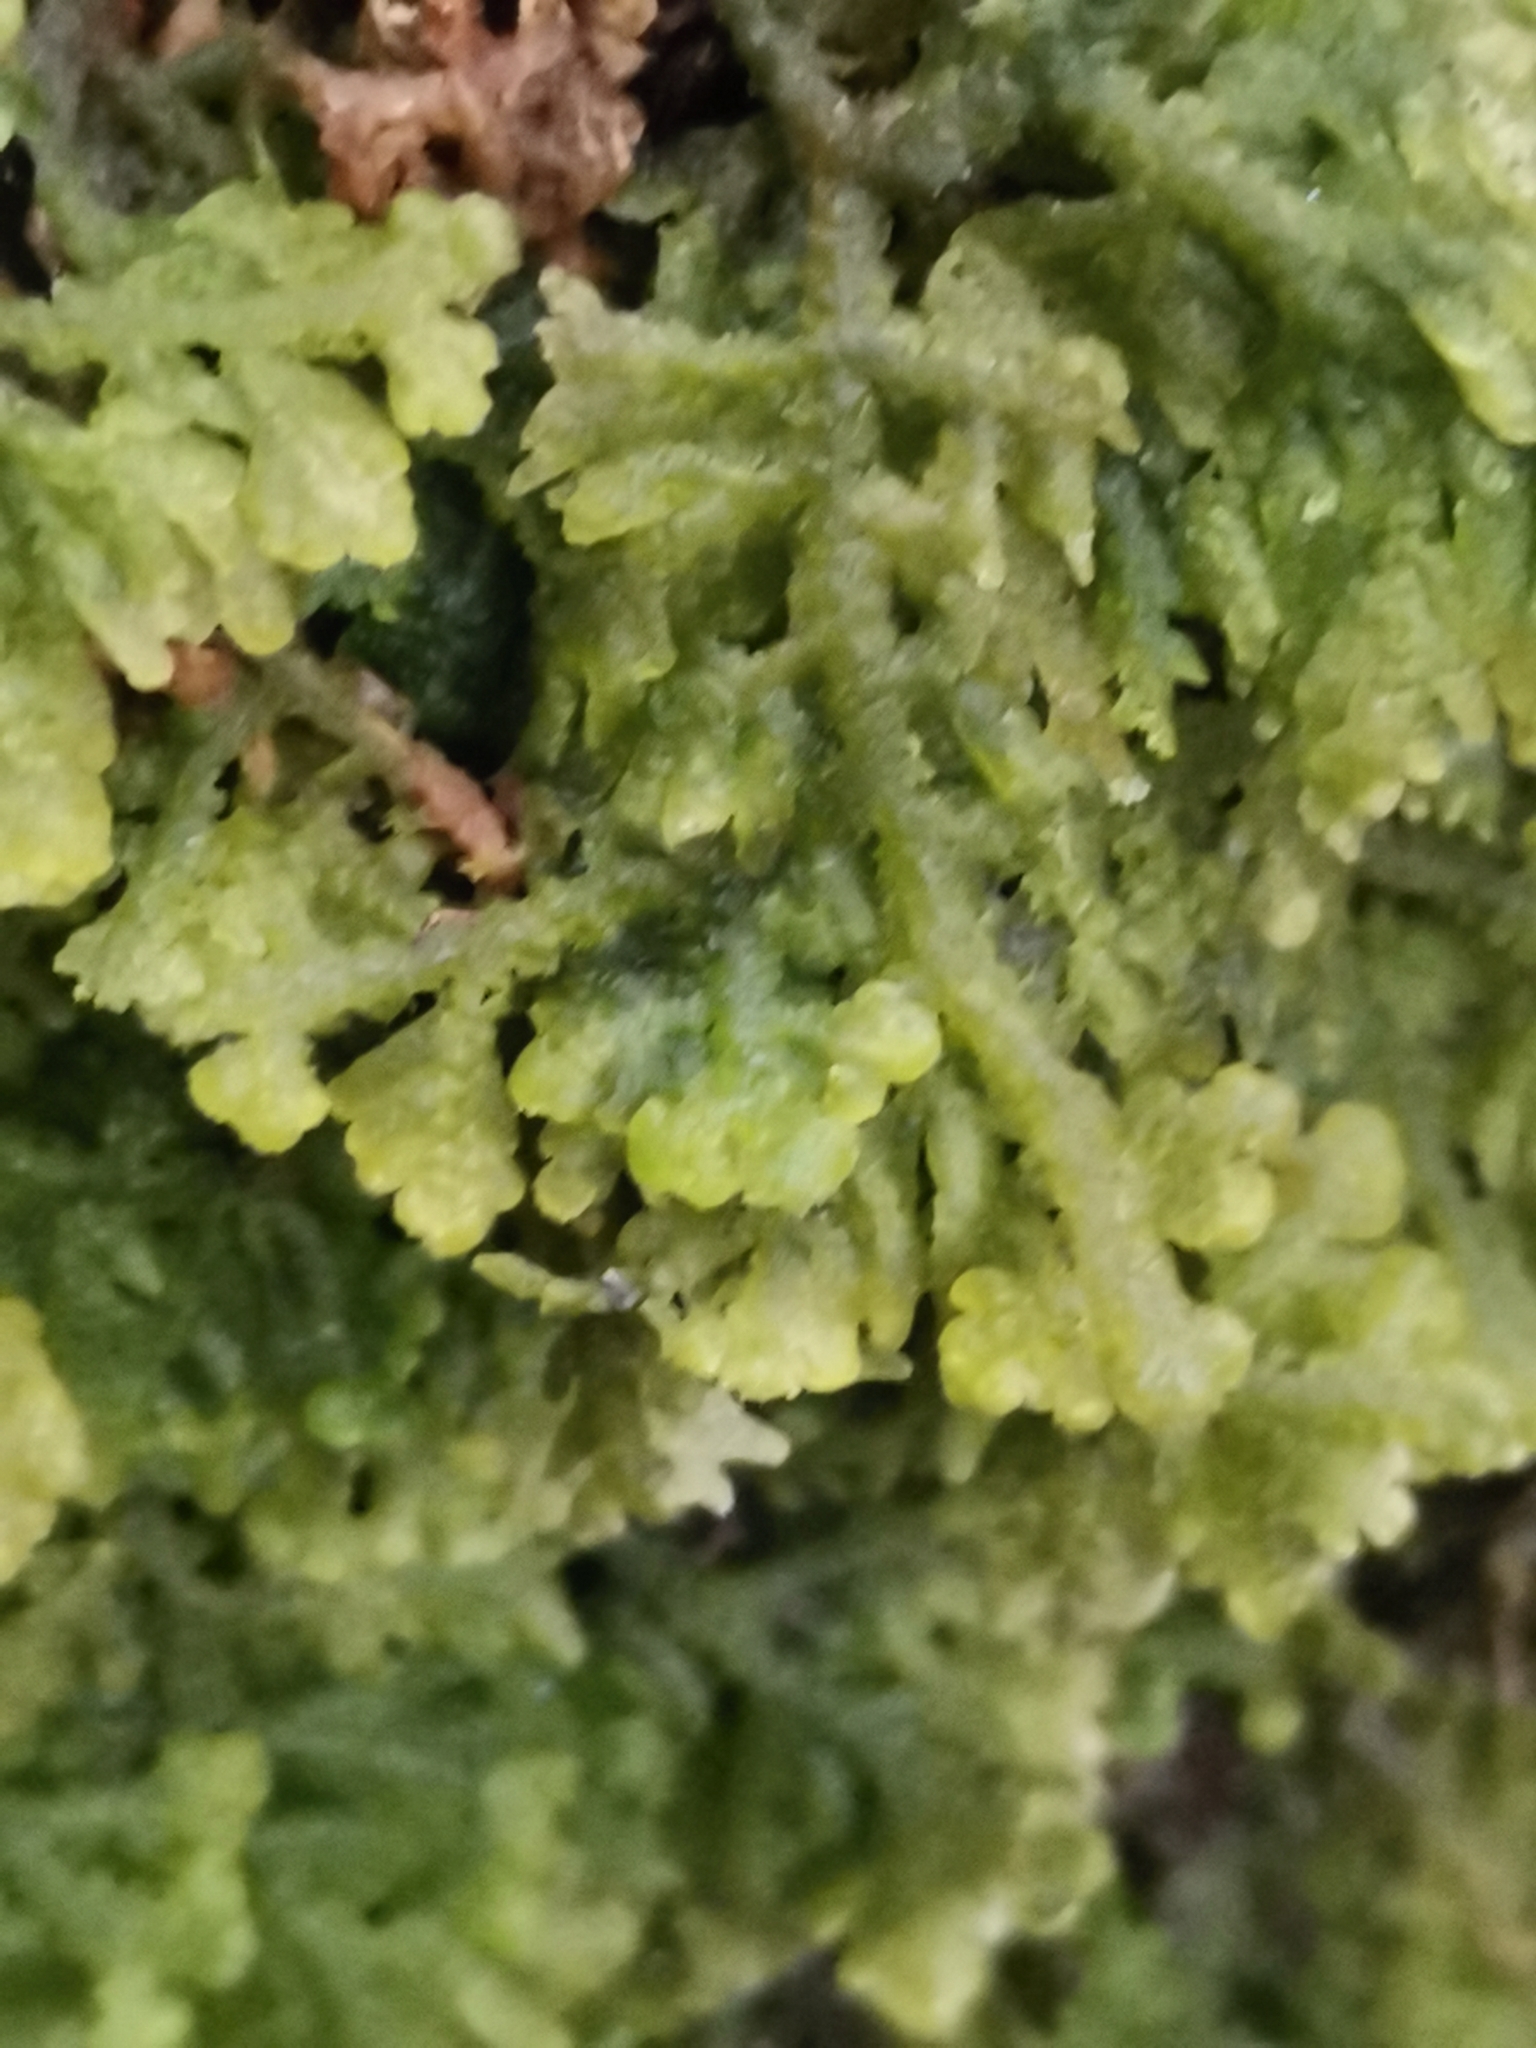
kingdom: Plantae
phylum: Marchantiophyta
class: Jungermanniopsida
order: Jungermanniales
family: Trichocoleaceae
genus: Trichocolea
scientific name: Trichocolea tomentella
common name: Woolly liverwort
